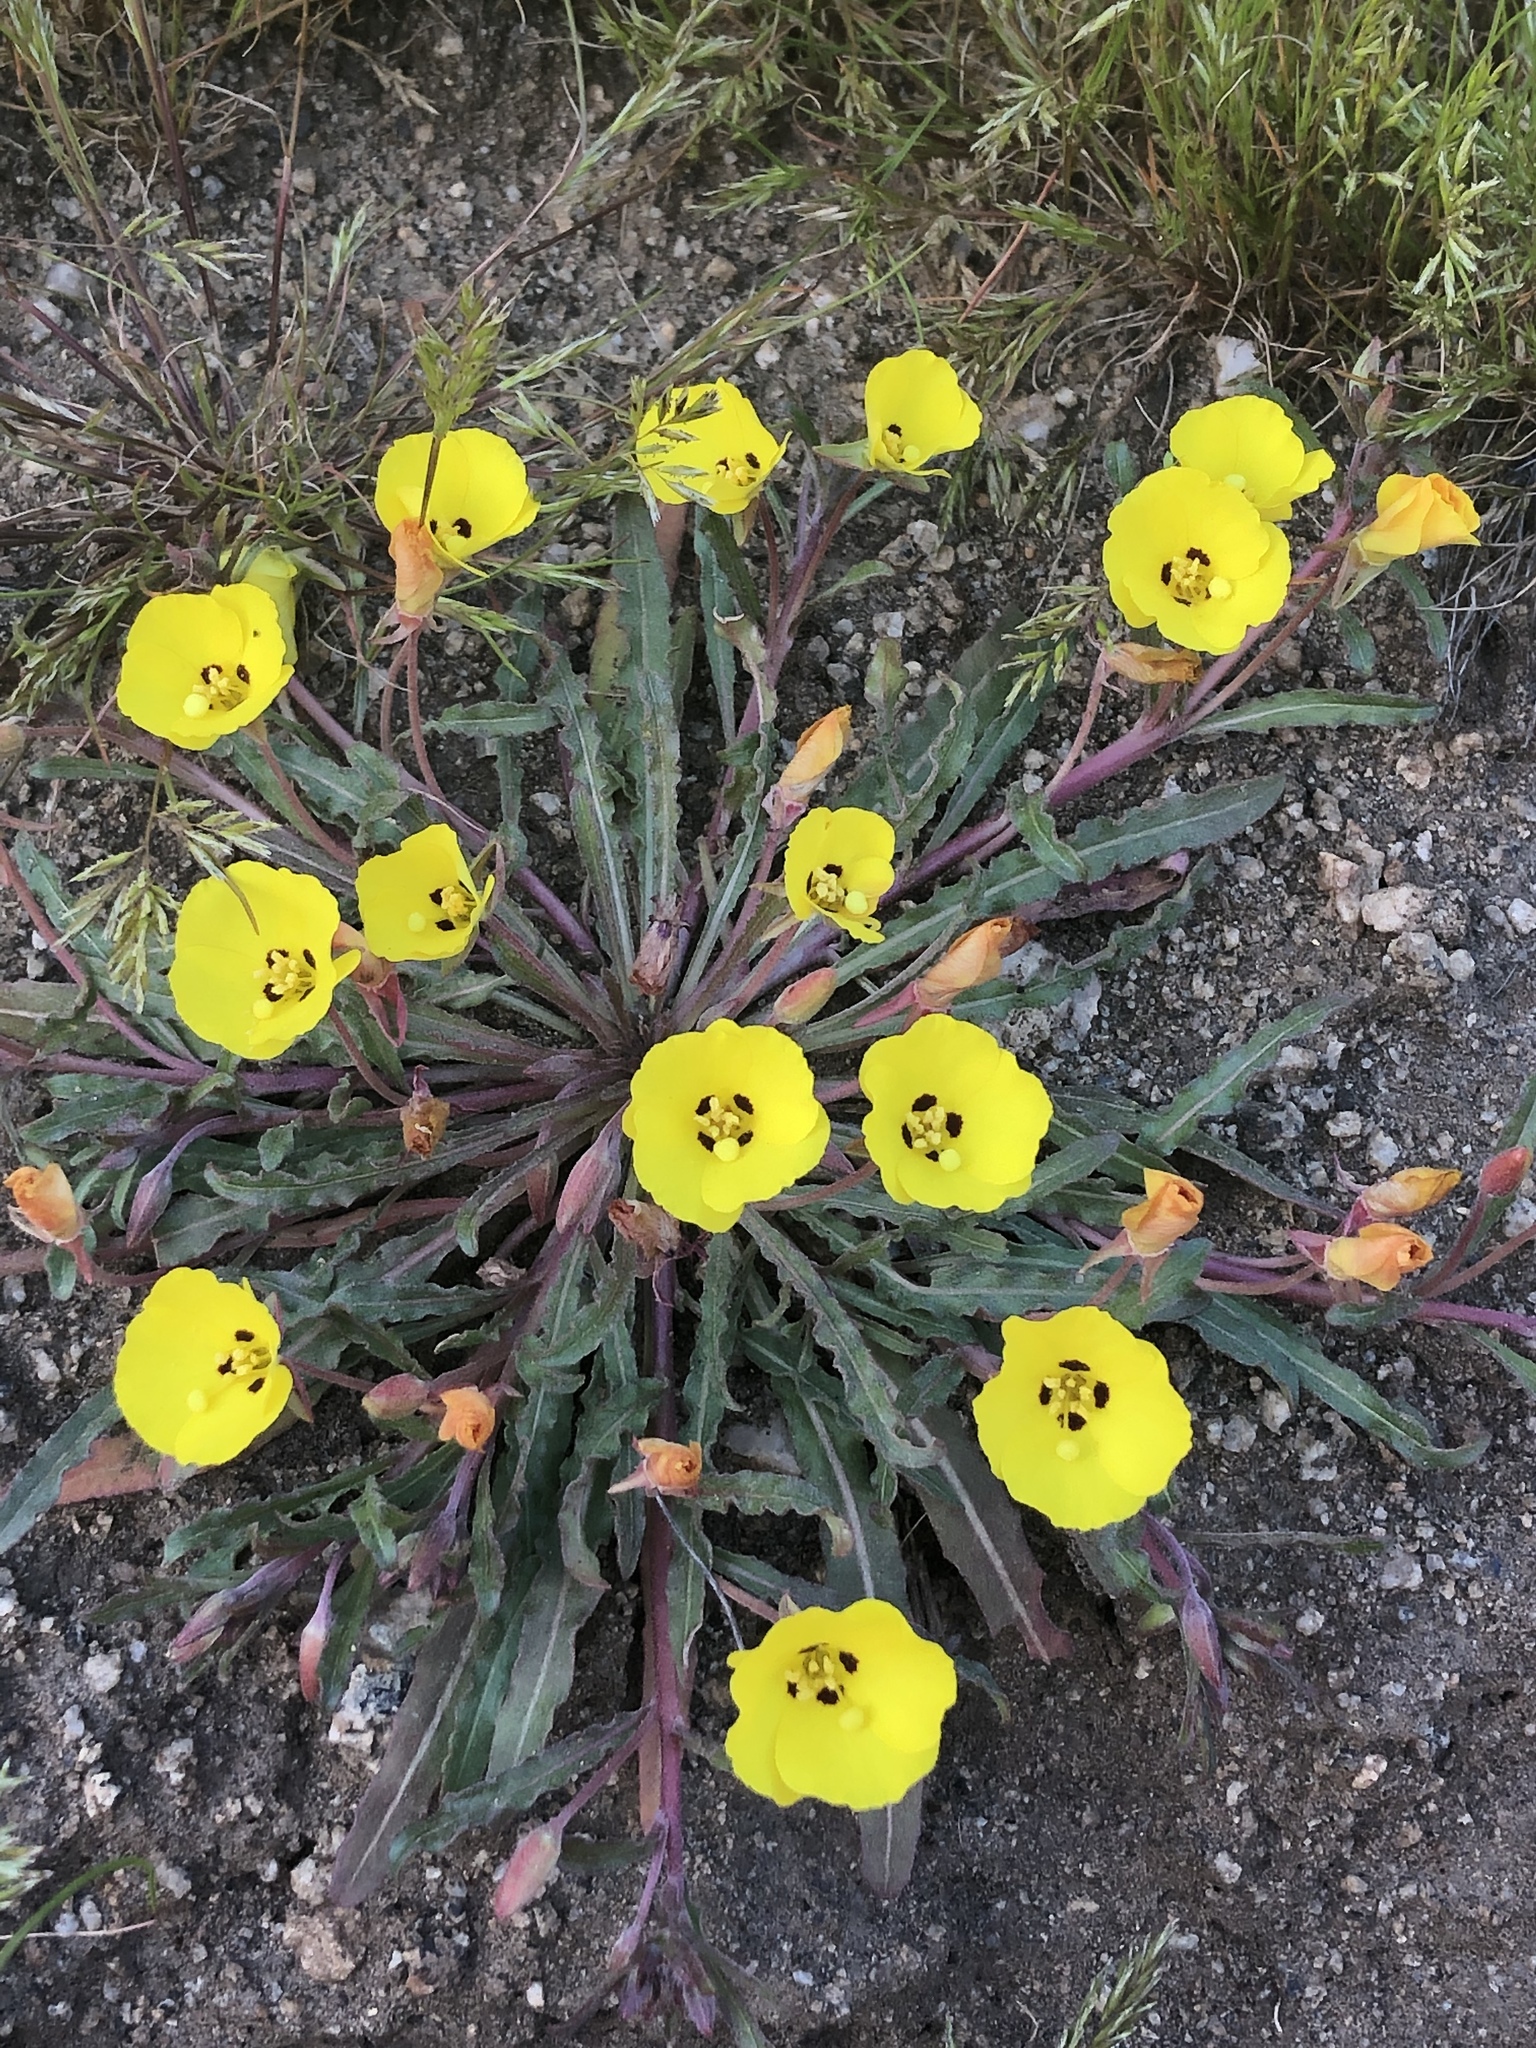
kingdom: Plantae
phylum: Tracheophyta
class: Magnoliopsida
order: Myrtales
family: Onagraceae
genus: Camissoniopsis
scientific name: Camissoniopsis bistorta
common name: Southern suncup
